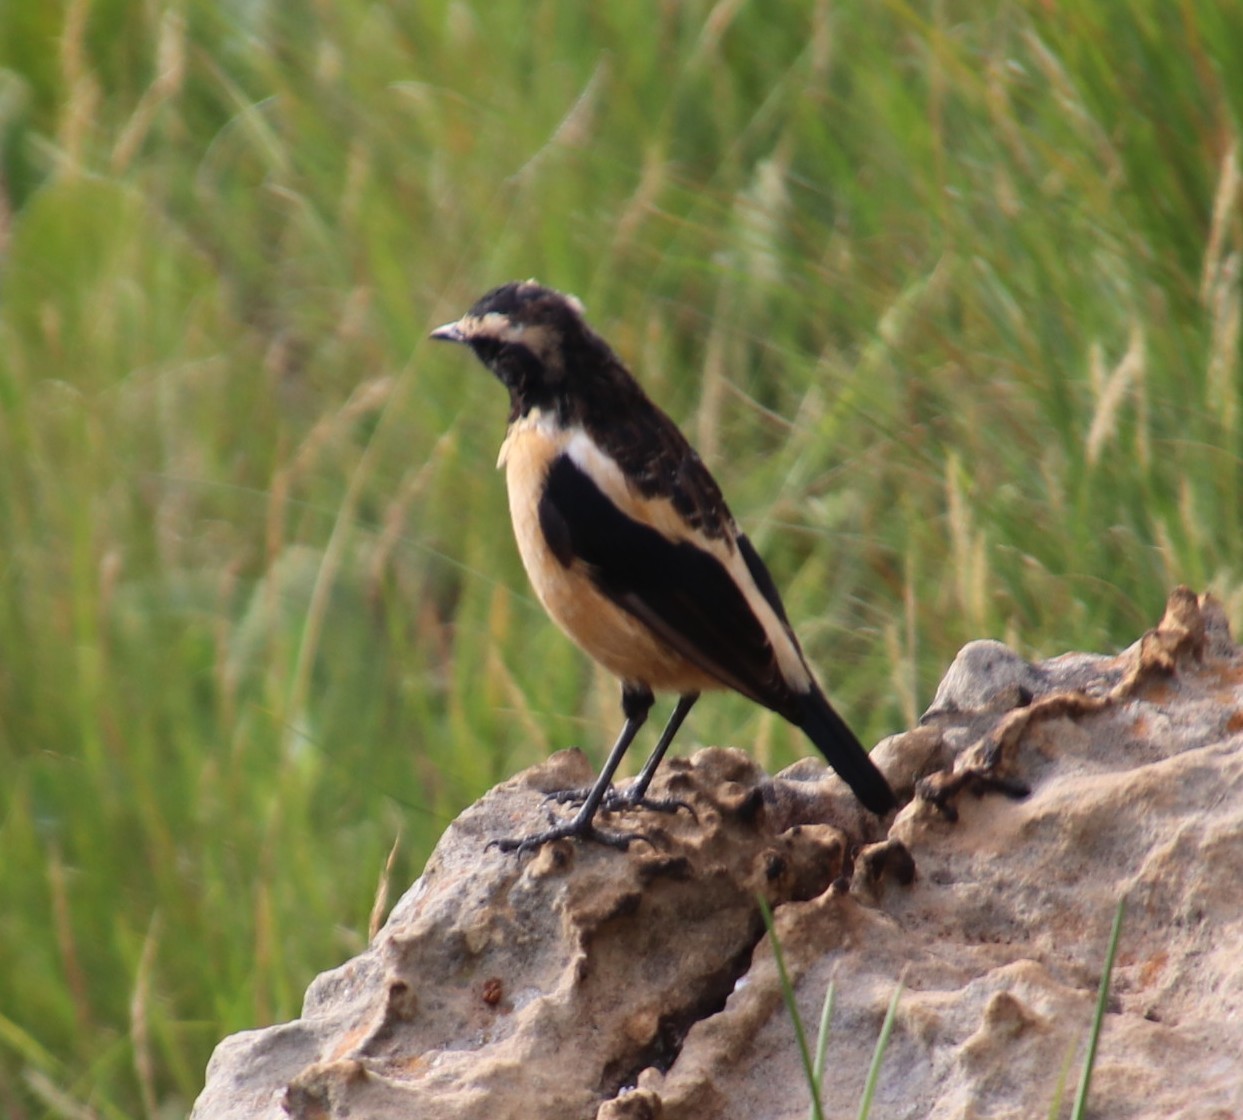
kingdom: Animalia
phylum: Chordata
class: Aves
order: Passeriformes
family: Muscicapidae
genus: Campicoloides
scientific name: Campicoloides bifasciatus
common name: Buff-streaked chat
